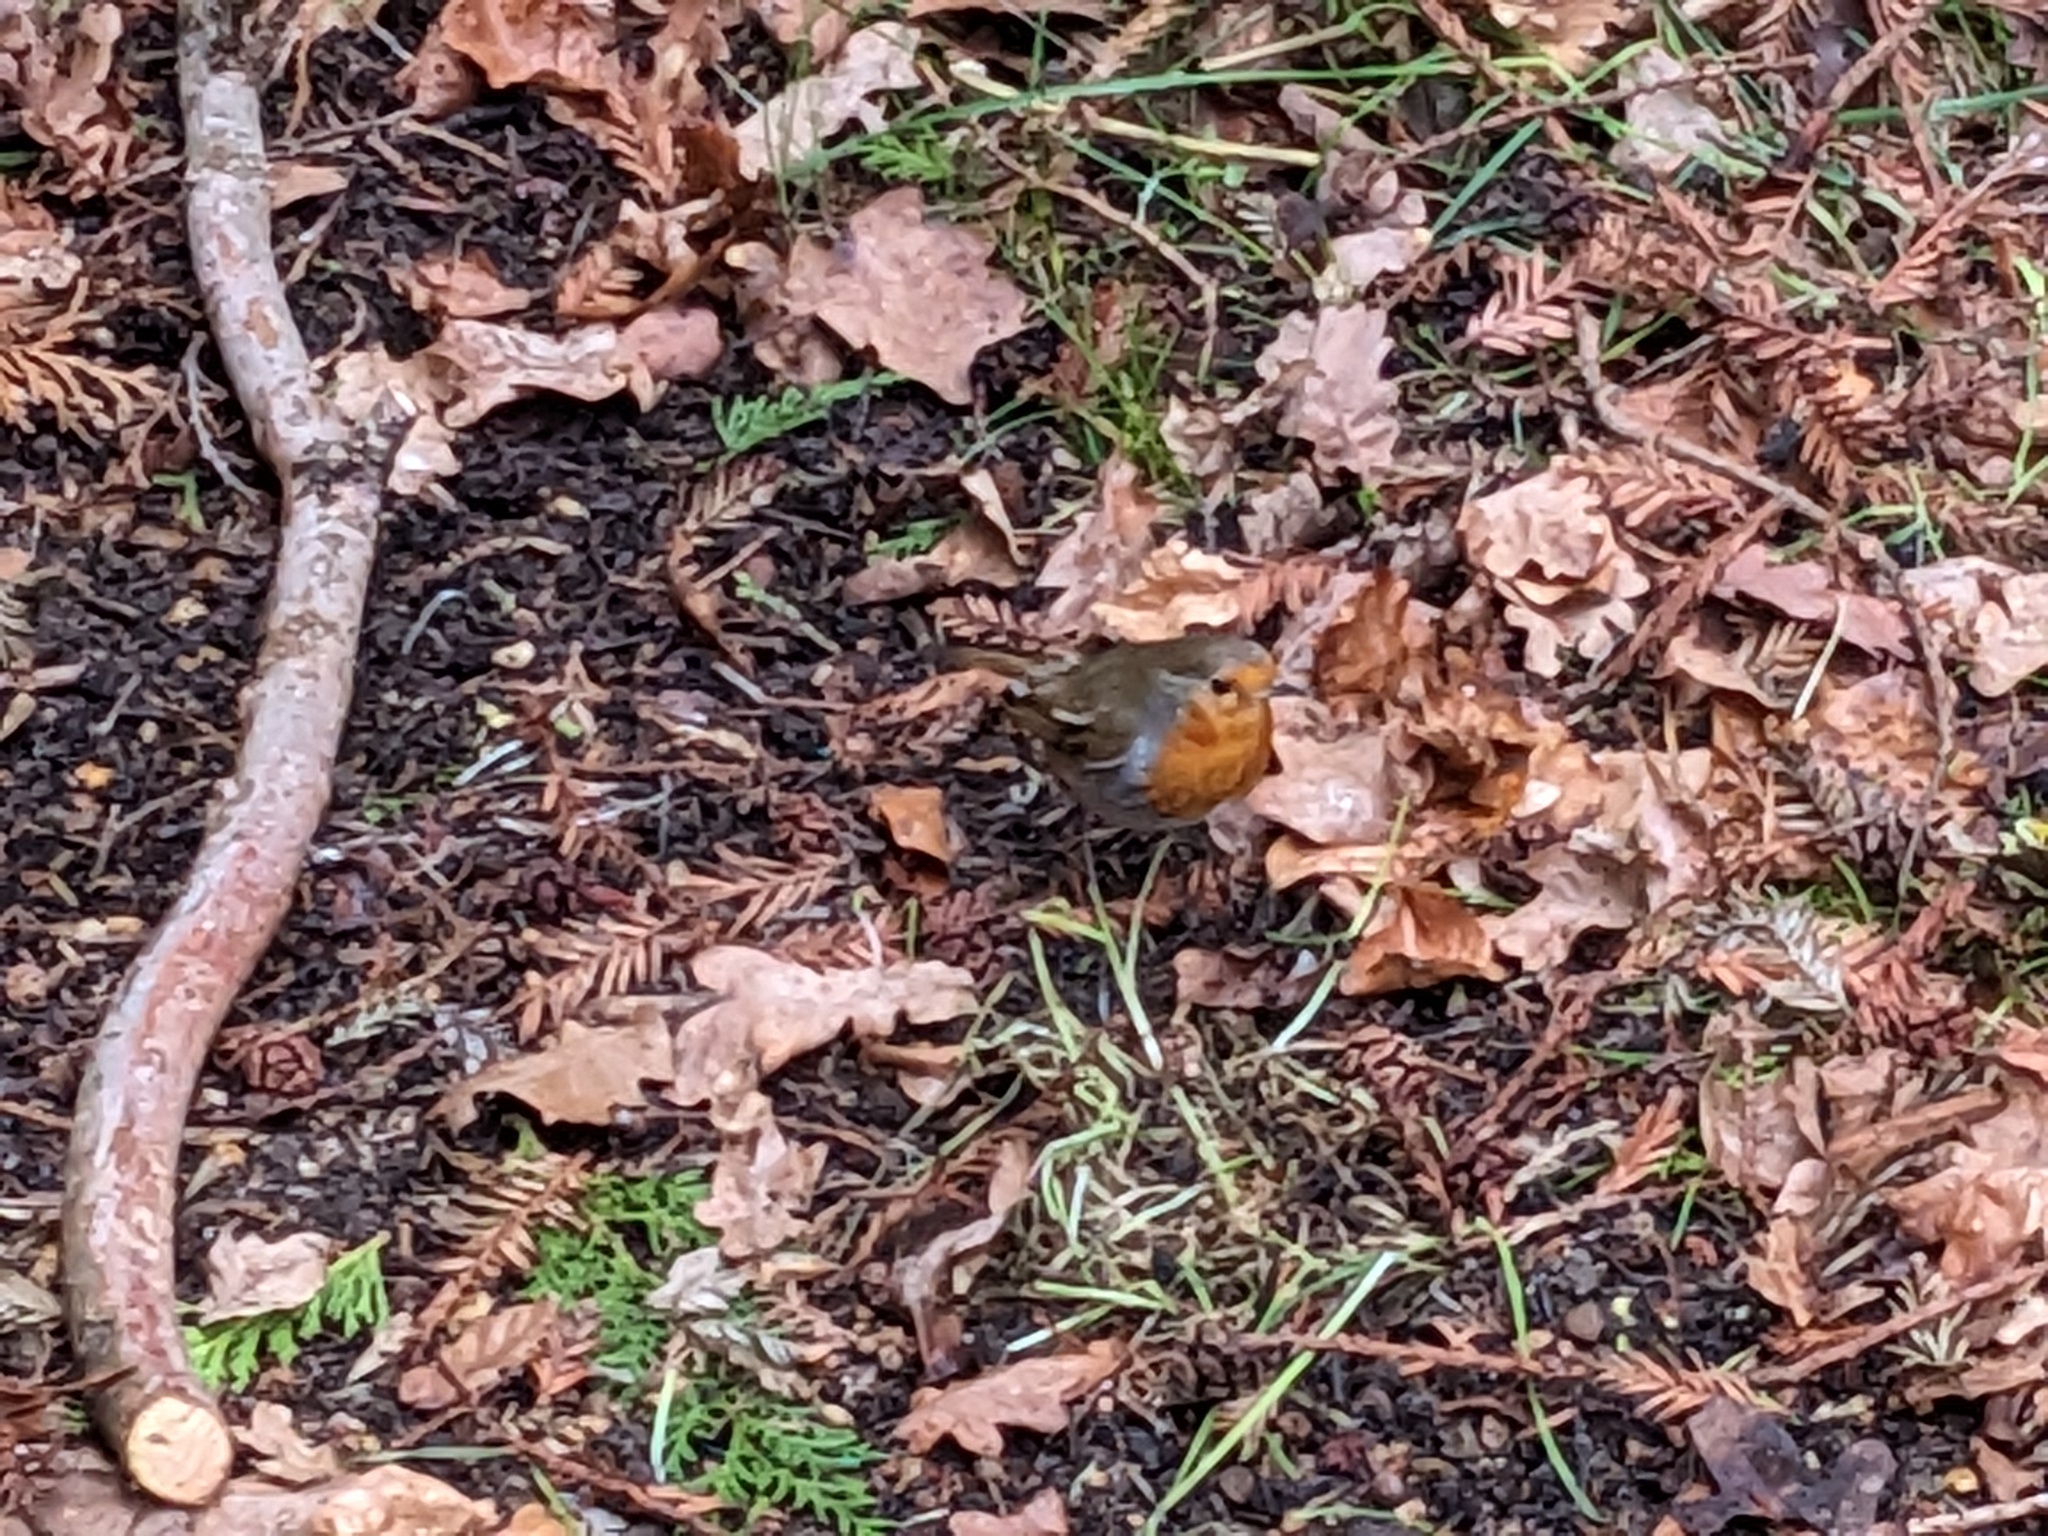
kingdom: Animalia
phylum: Chordata
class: Aves
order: Passeriformes
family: Muscicapidae
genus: Erithacus
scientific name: Erithacus rubecula
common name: European robin
